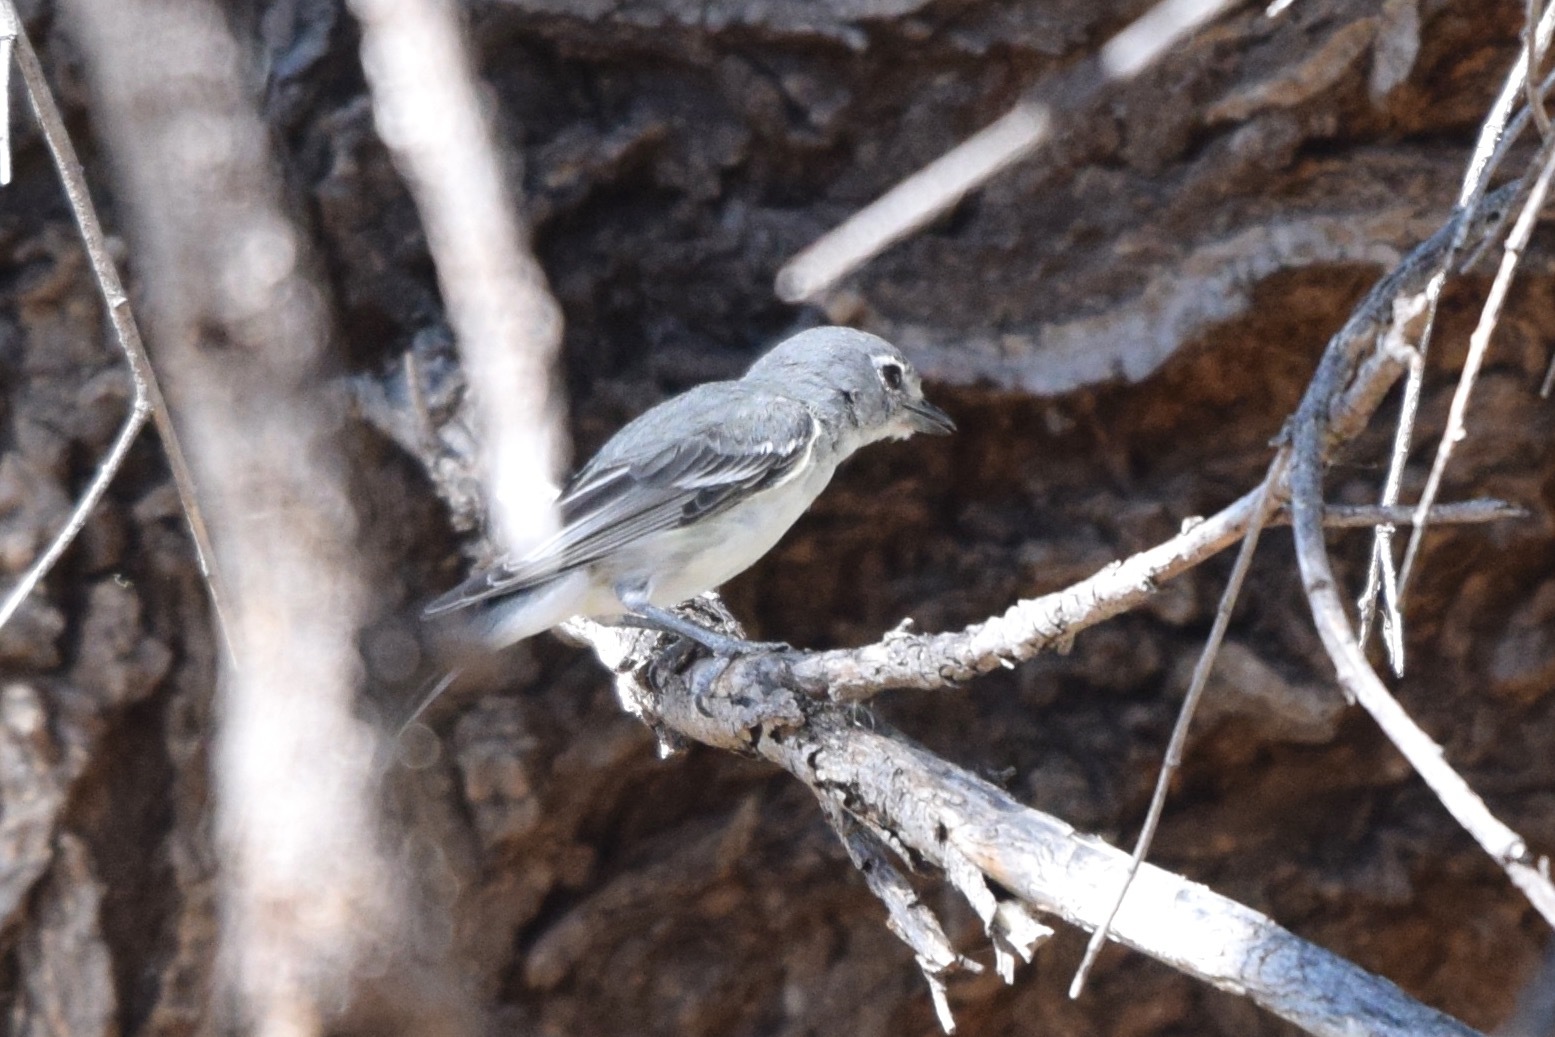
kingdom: Animalia
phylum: Chordata
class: Aves
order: Passeriformes
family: Vireonidae
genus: Vireo
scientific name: Vireo plumbeus
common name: Plumbeous vireo
